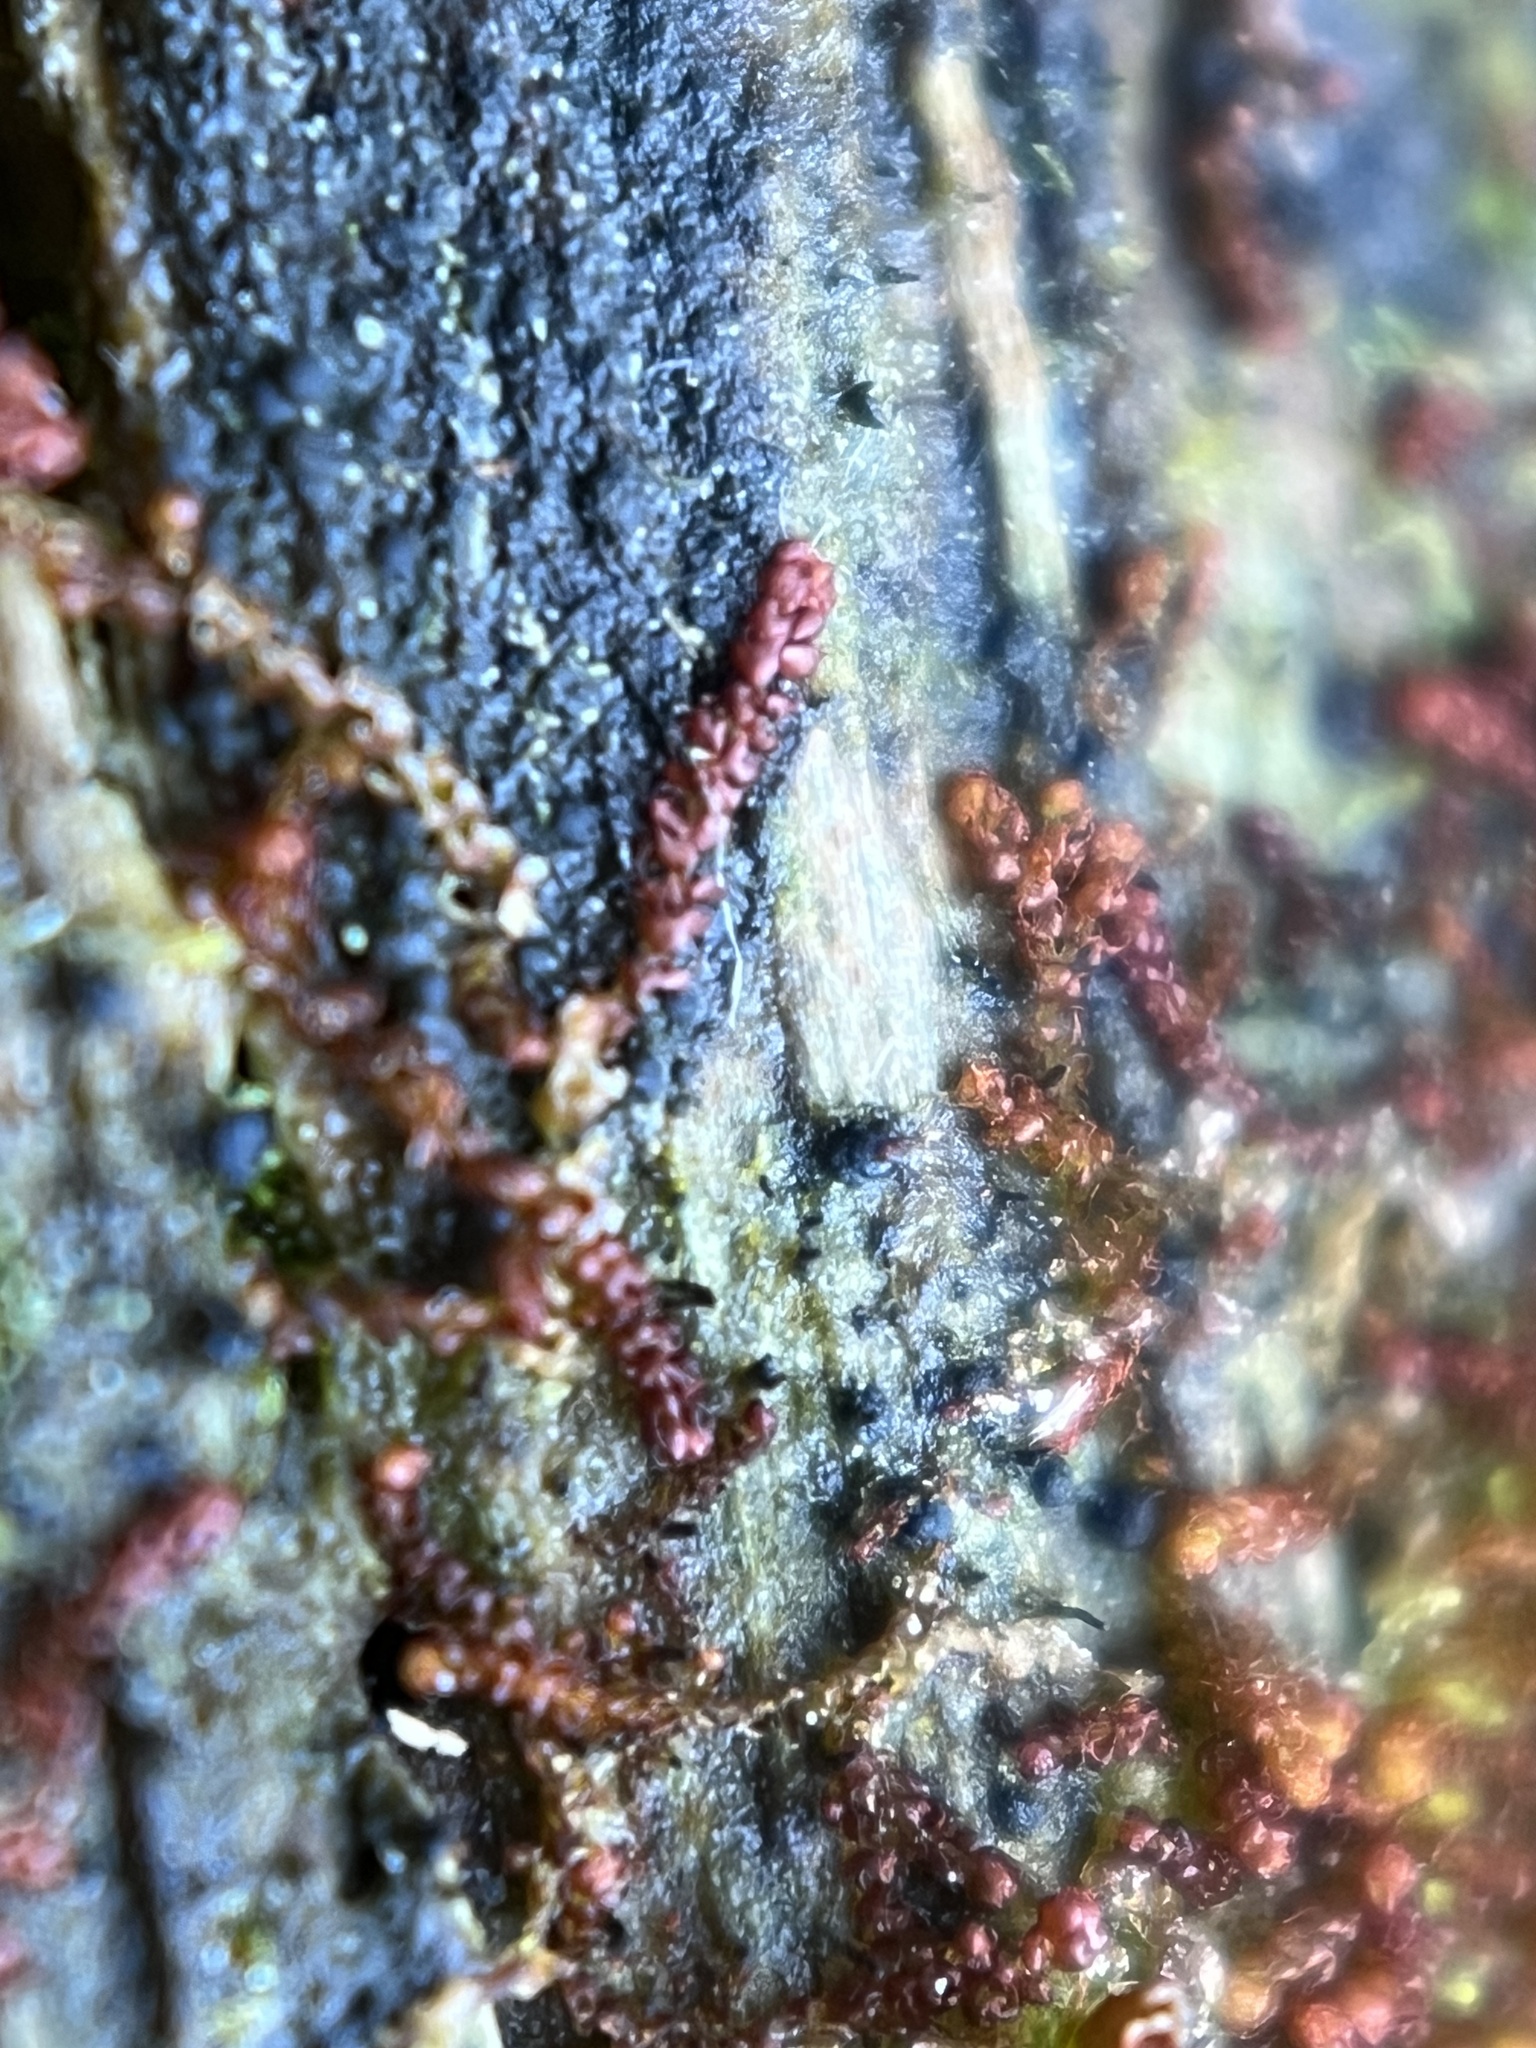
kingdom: Plantae
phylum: Marchantiophyta
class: Jungermanniopsida
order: Jungermanniales
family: Cephaloziaceae
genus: Nowellia
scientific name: Nowellia curvifolia
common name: Wood rustwort
